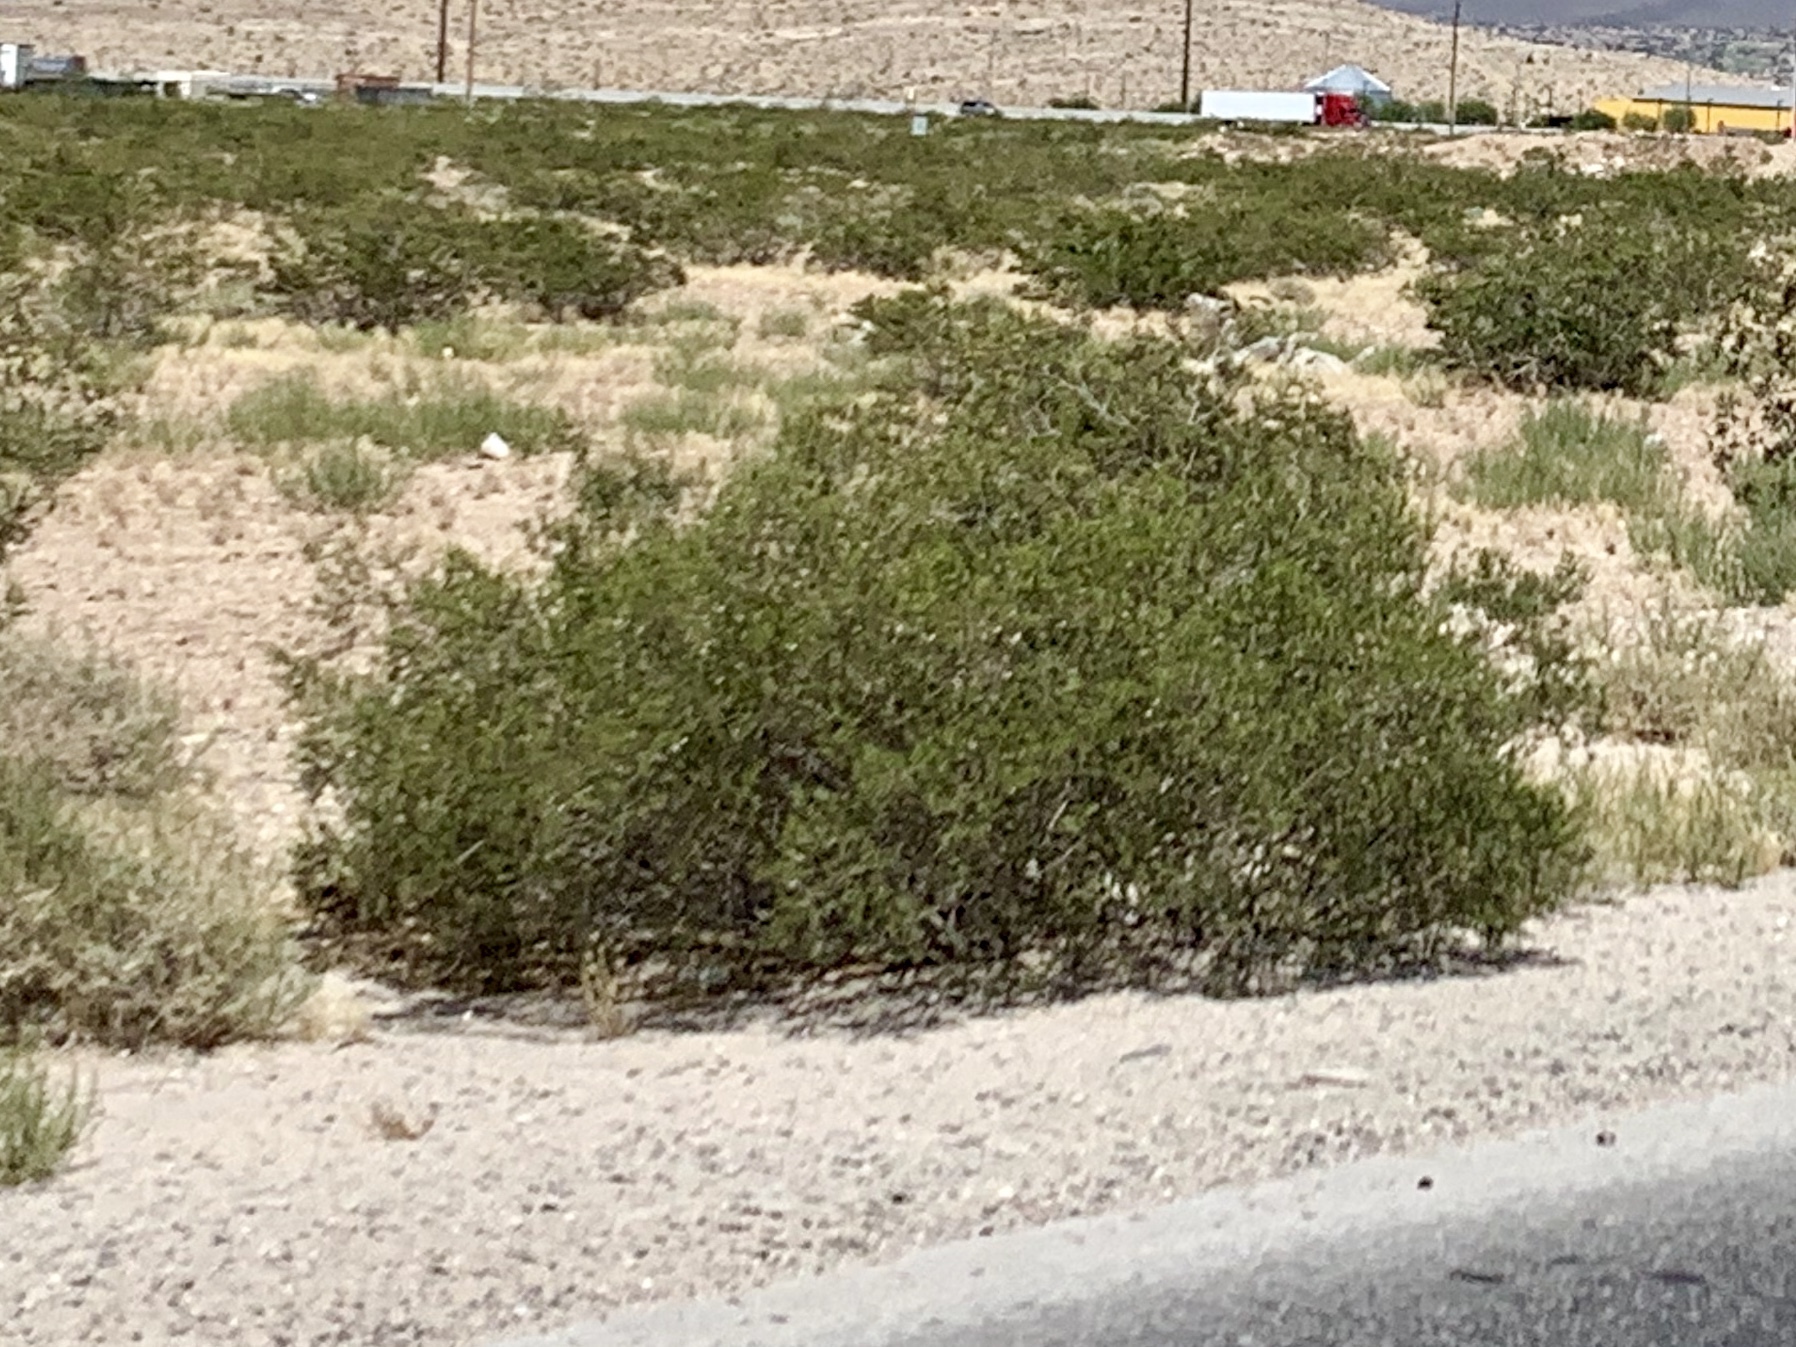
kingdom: Plantae
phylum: Tracheophyta
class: Magnoliopsida
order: Zygophyllales
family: Zygophyllaceae
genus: Larrea
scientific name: Larrea tridentata
